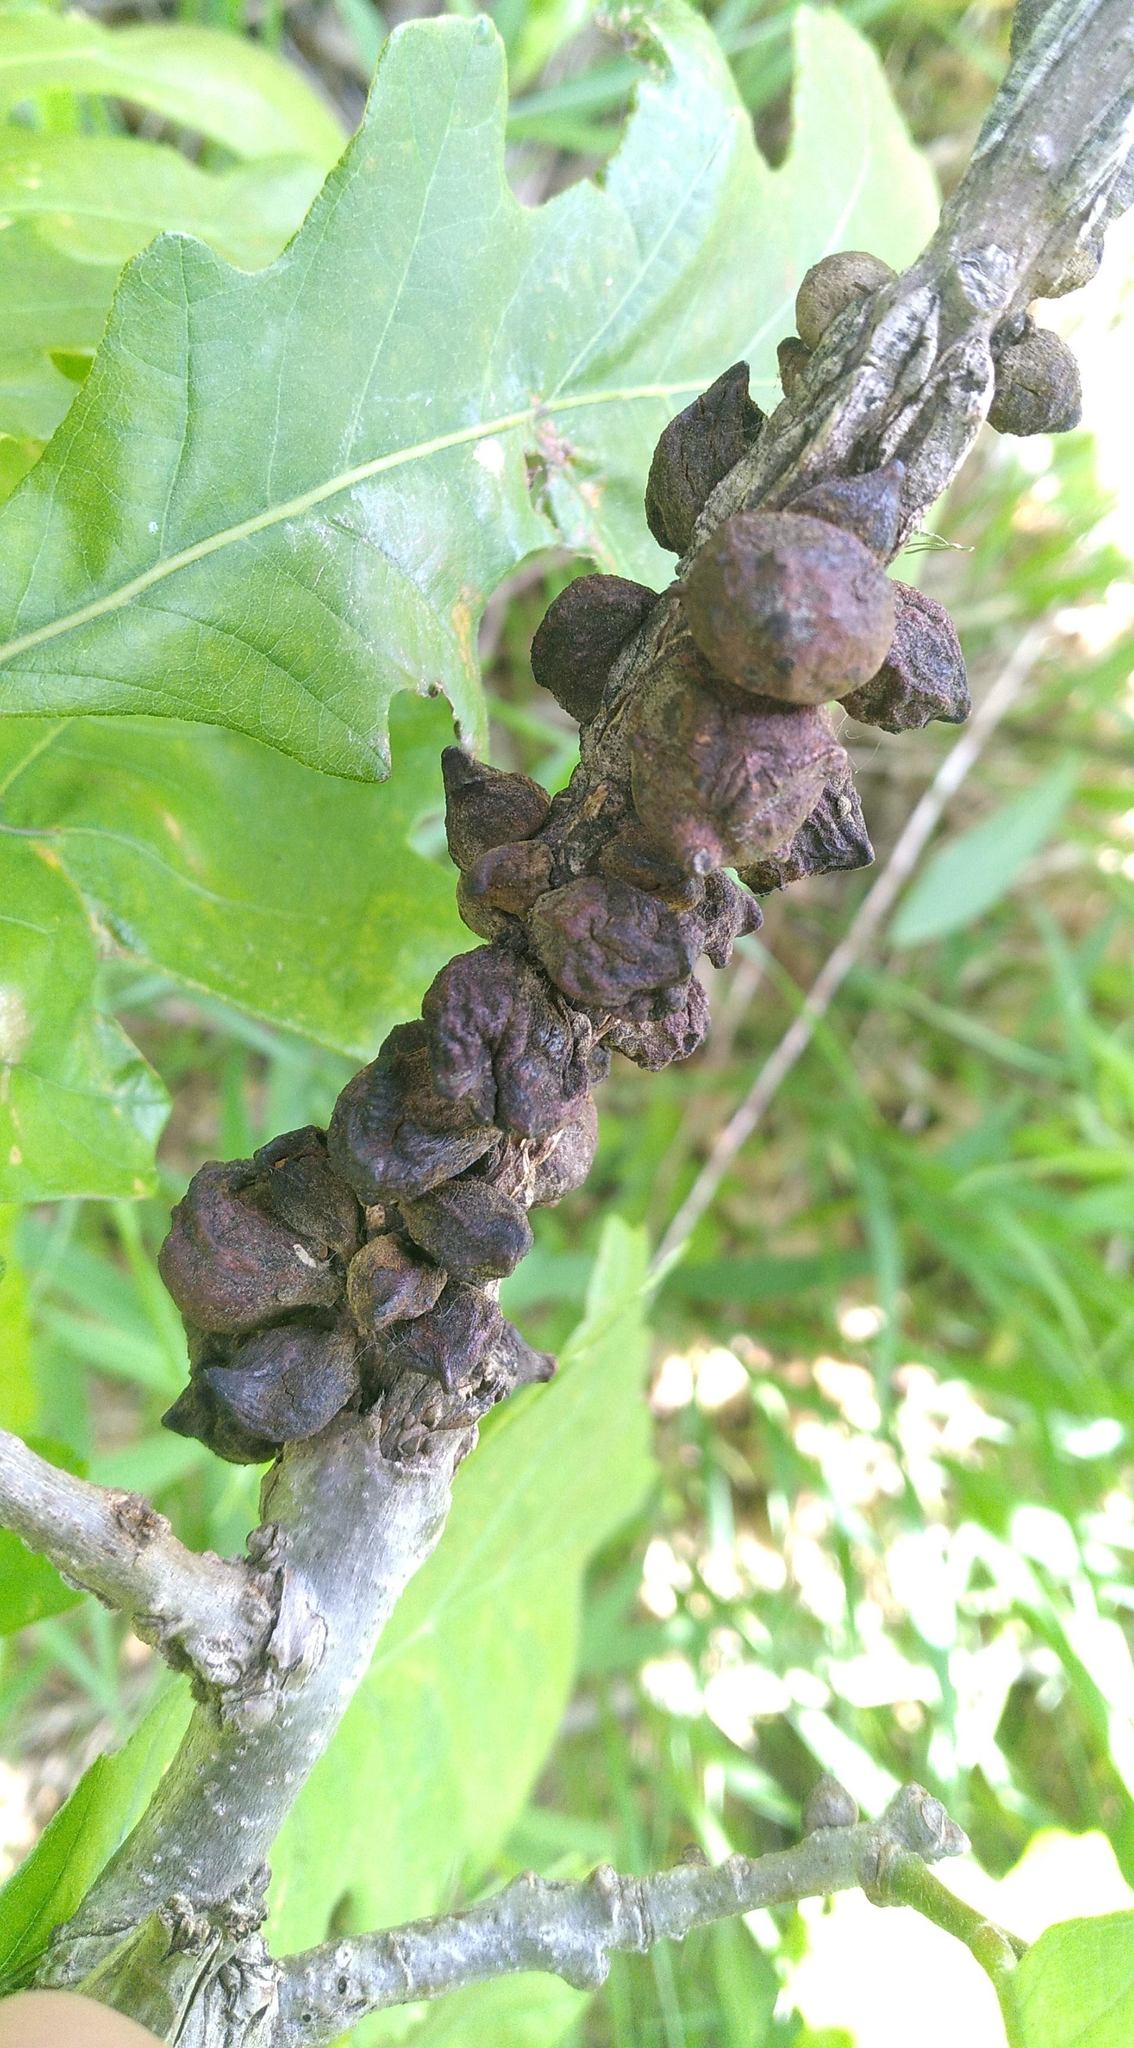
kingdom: Animalia
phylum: Arthropoda
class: Insecta
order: Hymenoptera
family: Cynipidae
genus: Disholcaspis
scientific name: Disholcaspis
